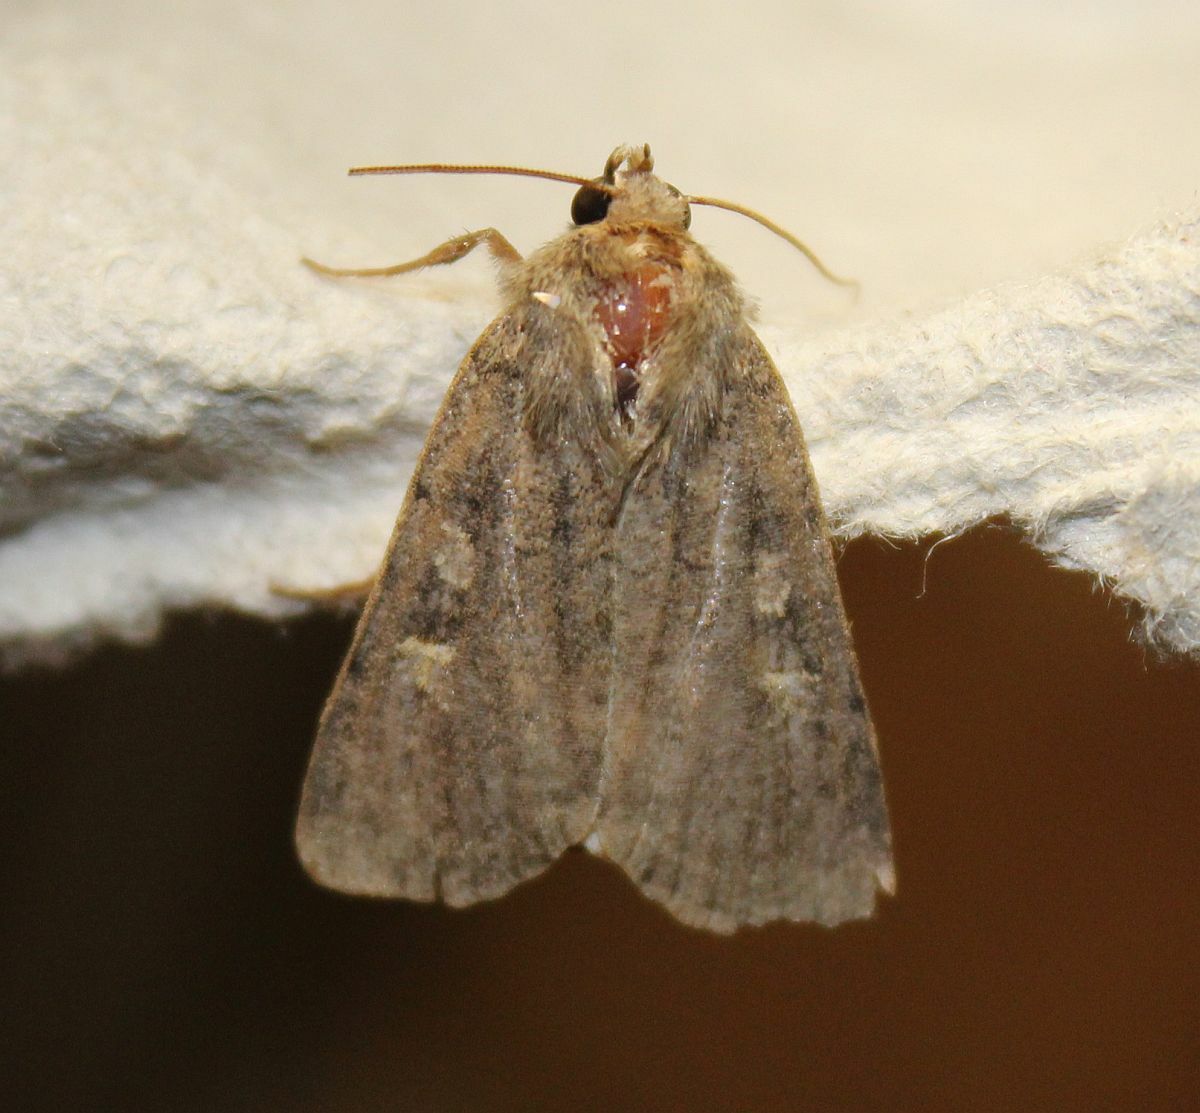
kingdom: Animalia
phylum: Arthropoda
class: Insecta
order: Lepidoptera
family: Noctuidae
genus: Xestia
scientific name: Xestia xanthographa
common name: Square-spot rustic
